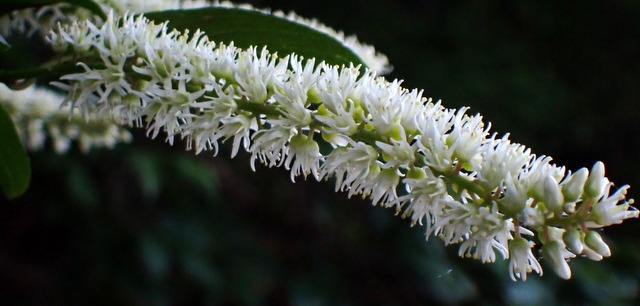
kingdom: Plantae
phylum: Tracheophyta
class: Magnoliopsida
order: Saxifragales
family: Iteaceae
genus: Itea
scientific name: Itea virginica
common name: Sweetspire
